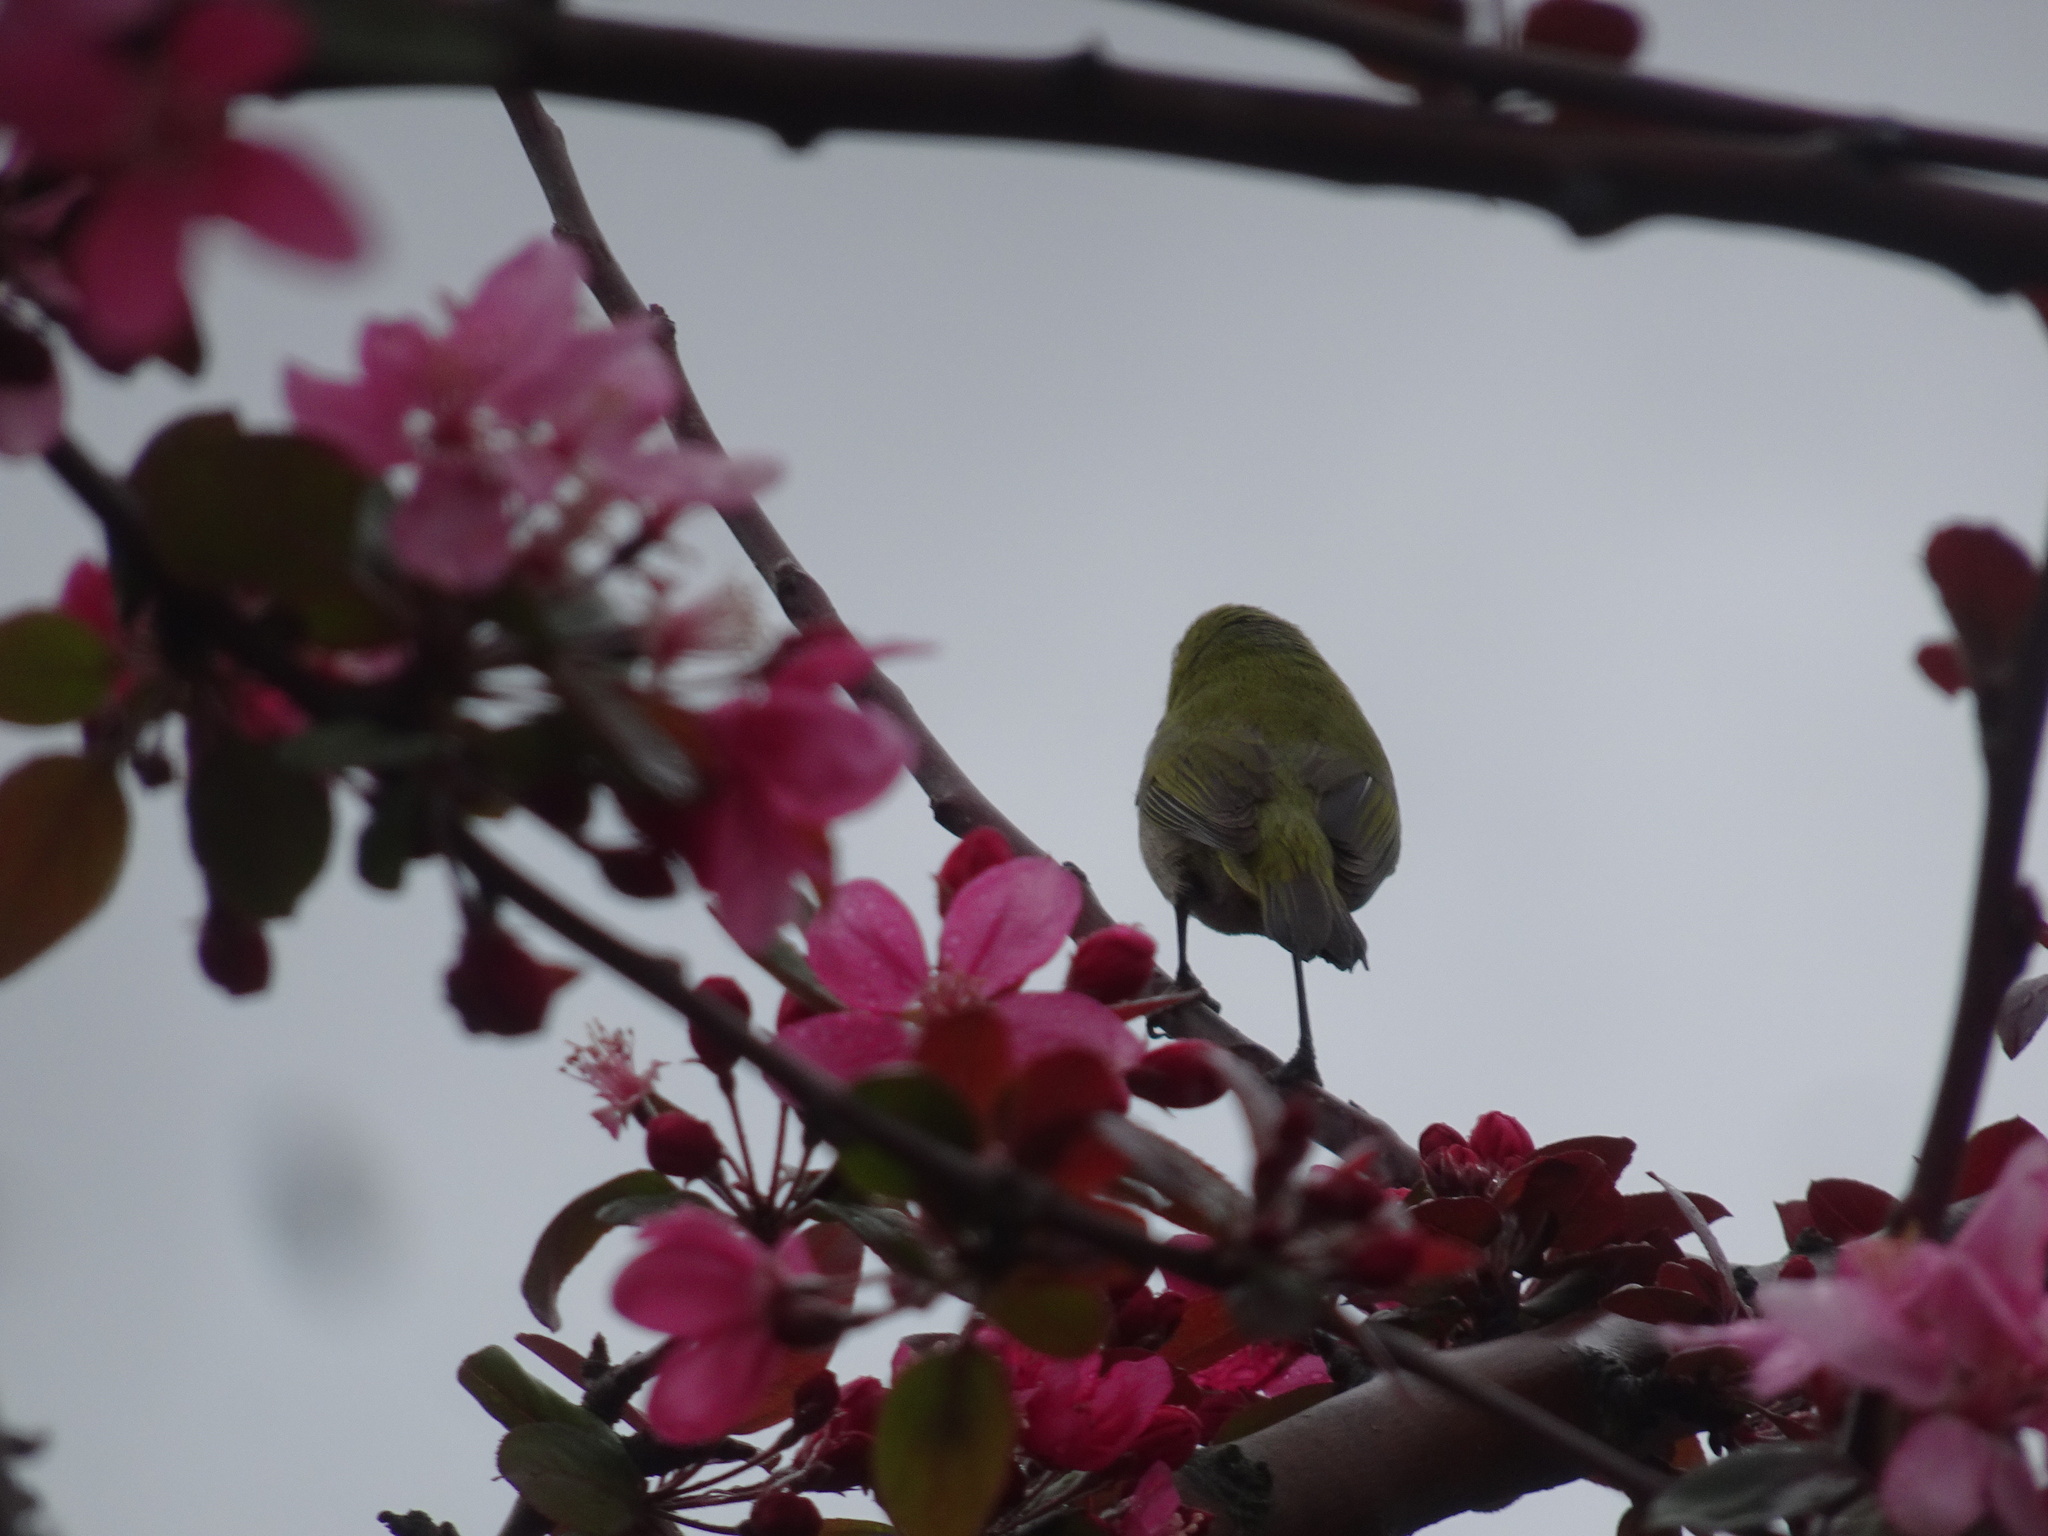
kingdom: Animalia
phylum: Chordata
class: Aves
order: Passeriformes
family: Zosteropidae
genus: Zosterops
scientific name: Zosterops virens
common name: Cape white-eye
